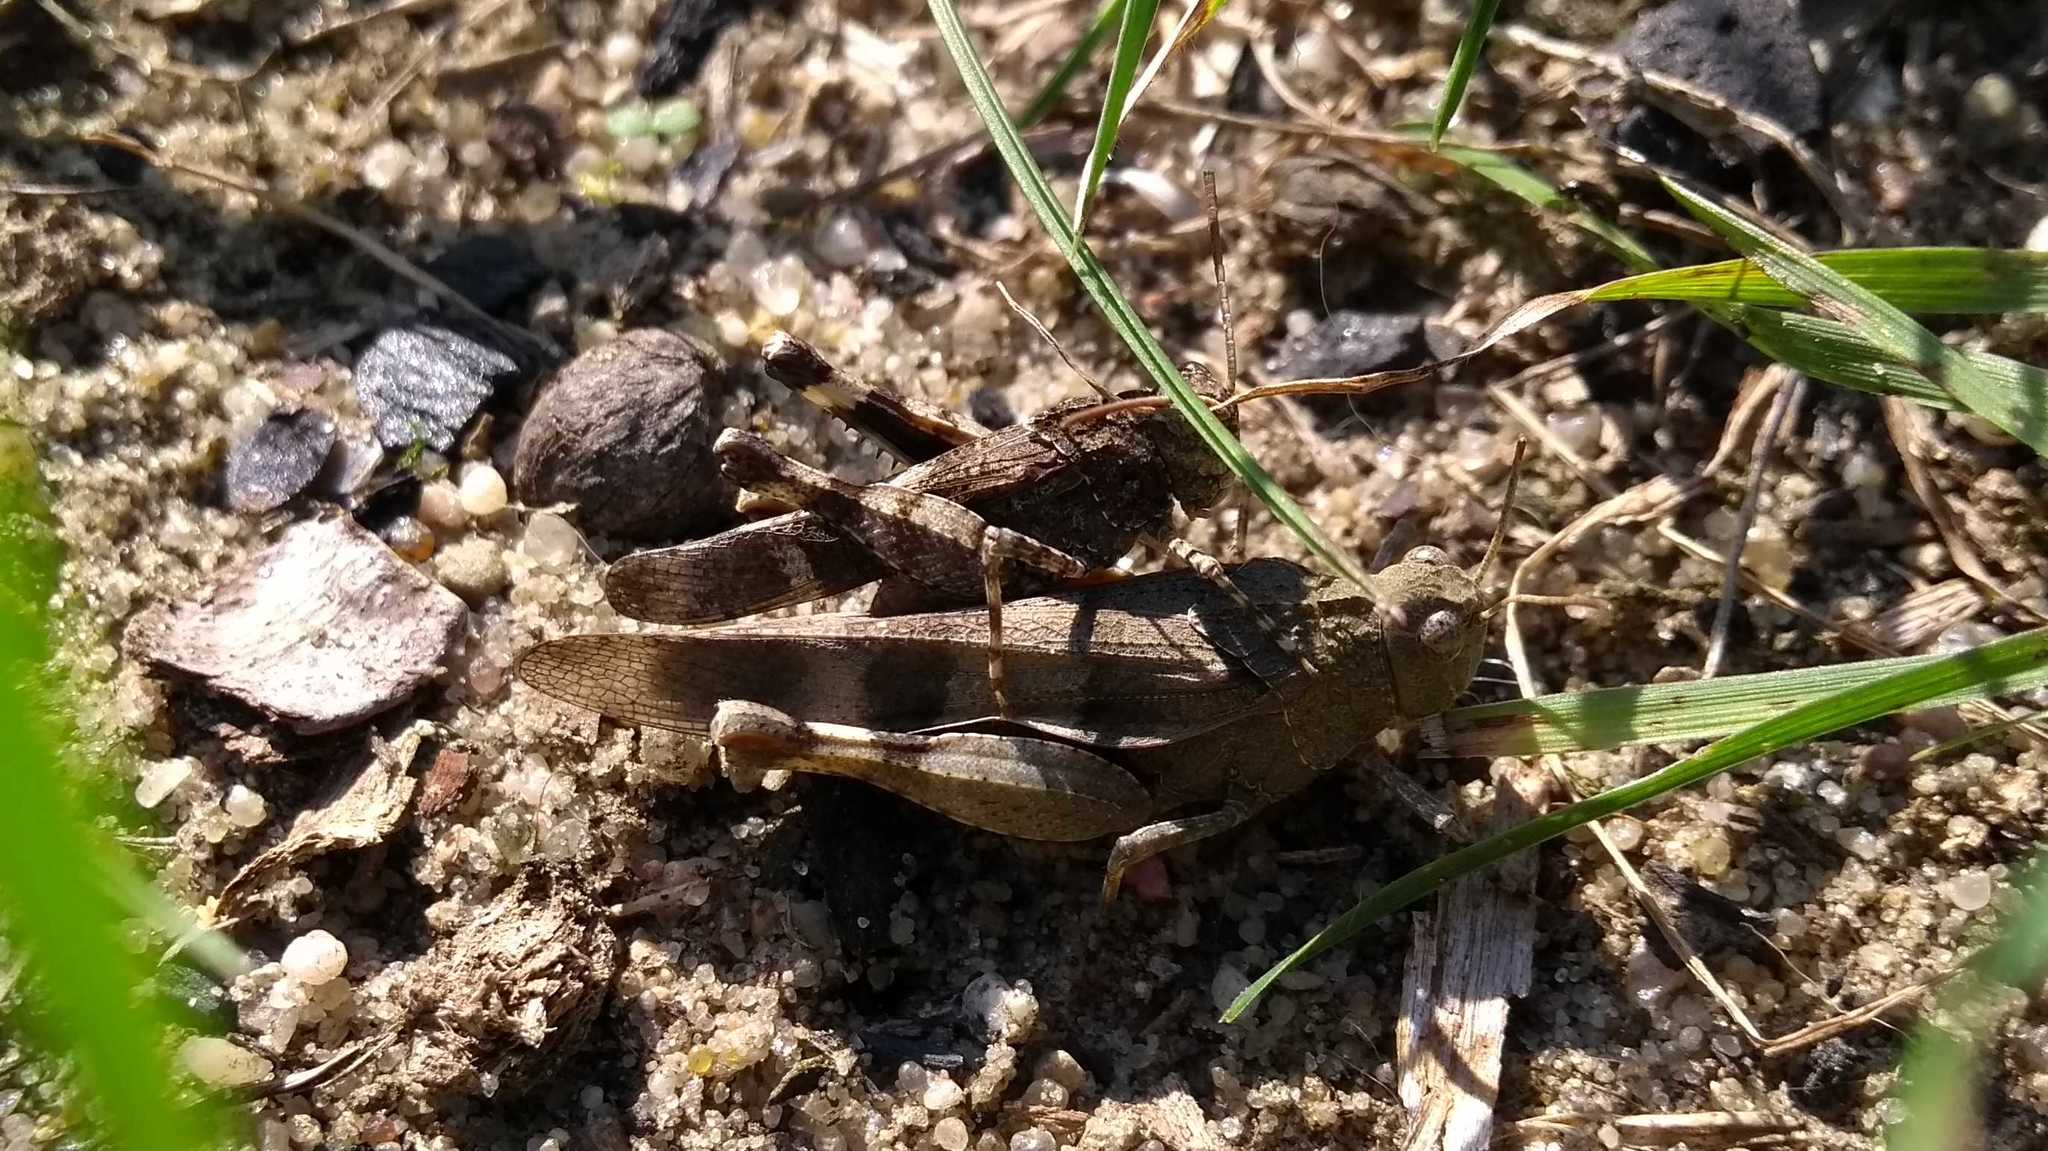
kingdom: Animalia
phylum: Arthropoda
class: Insecta
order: Orthoptera
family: Acrididae
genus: Oedipoda
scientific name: Oedipoda caerulescens
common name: Blue-winged grasshopper
